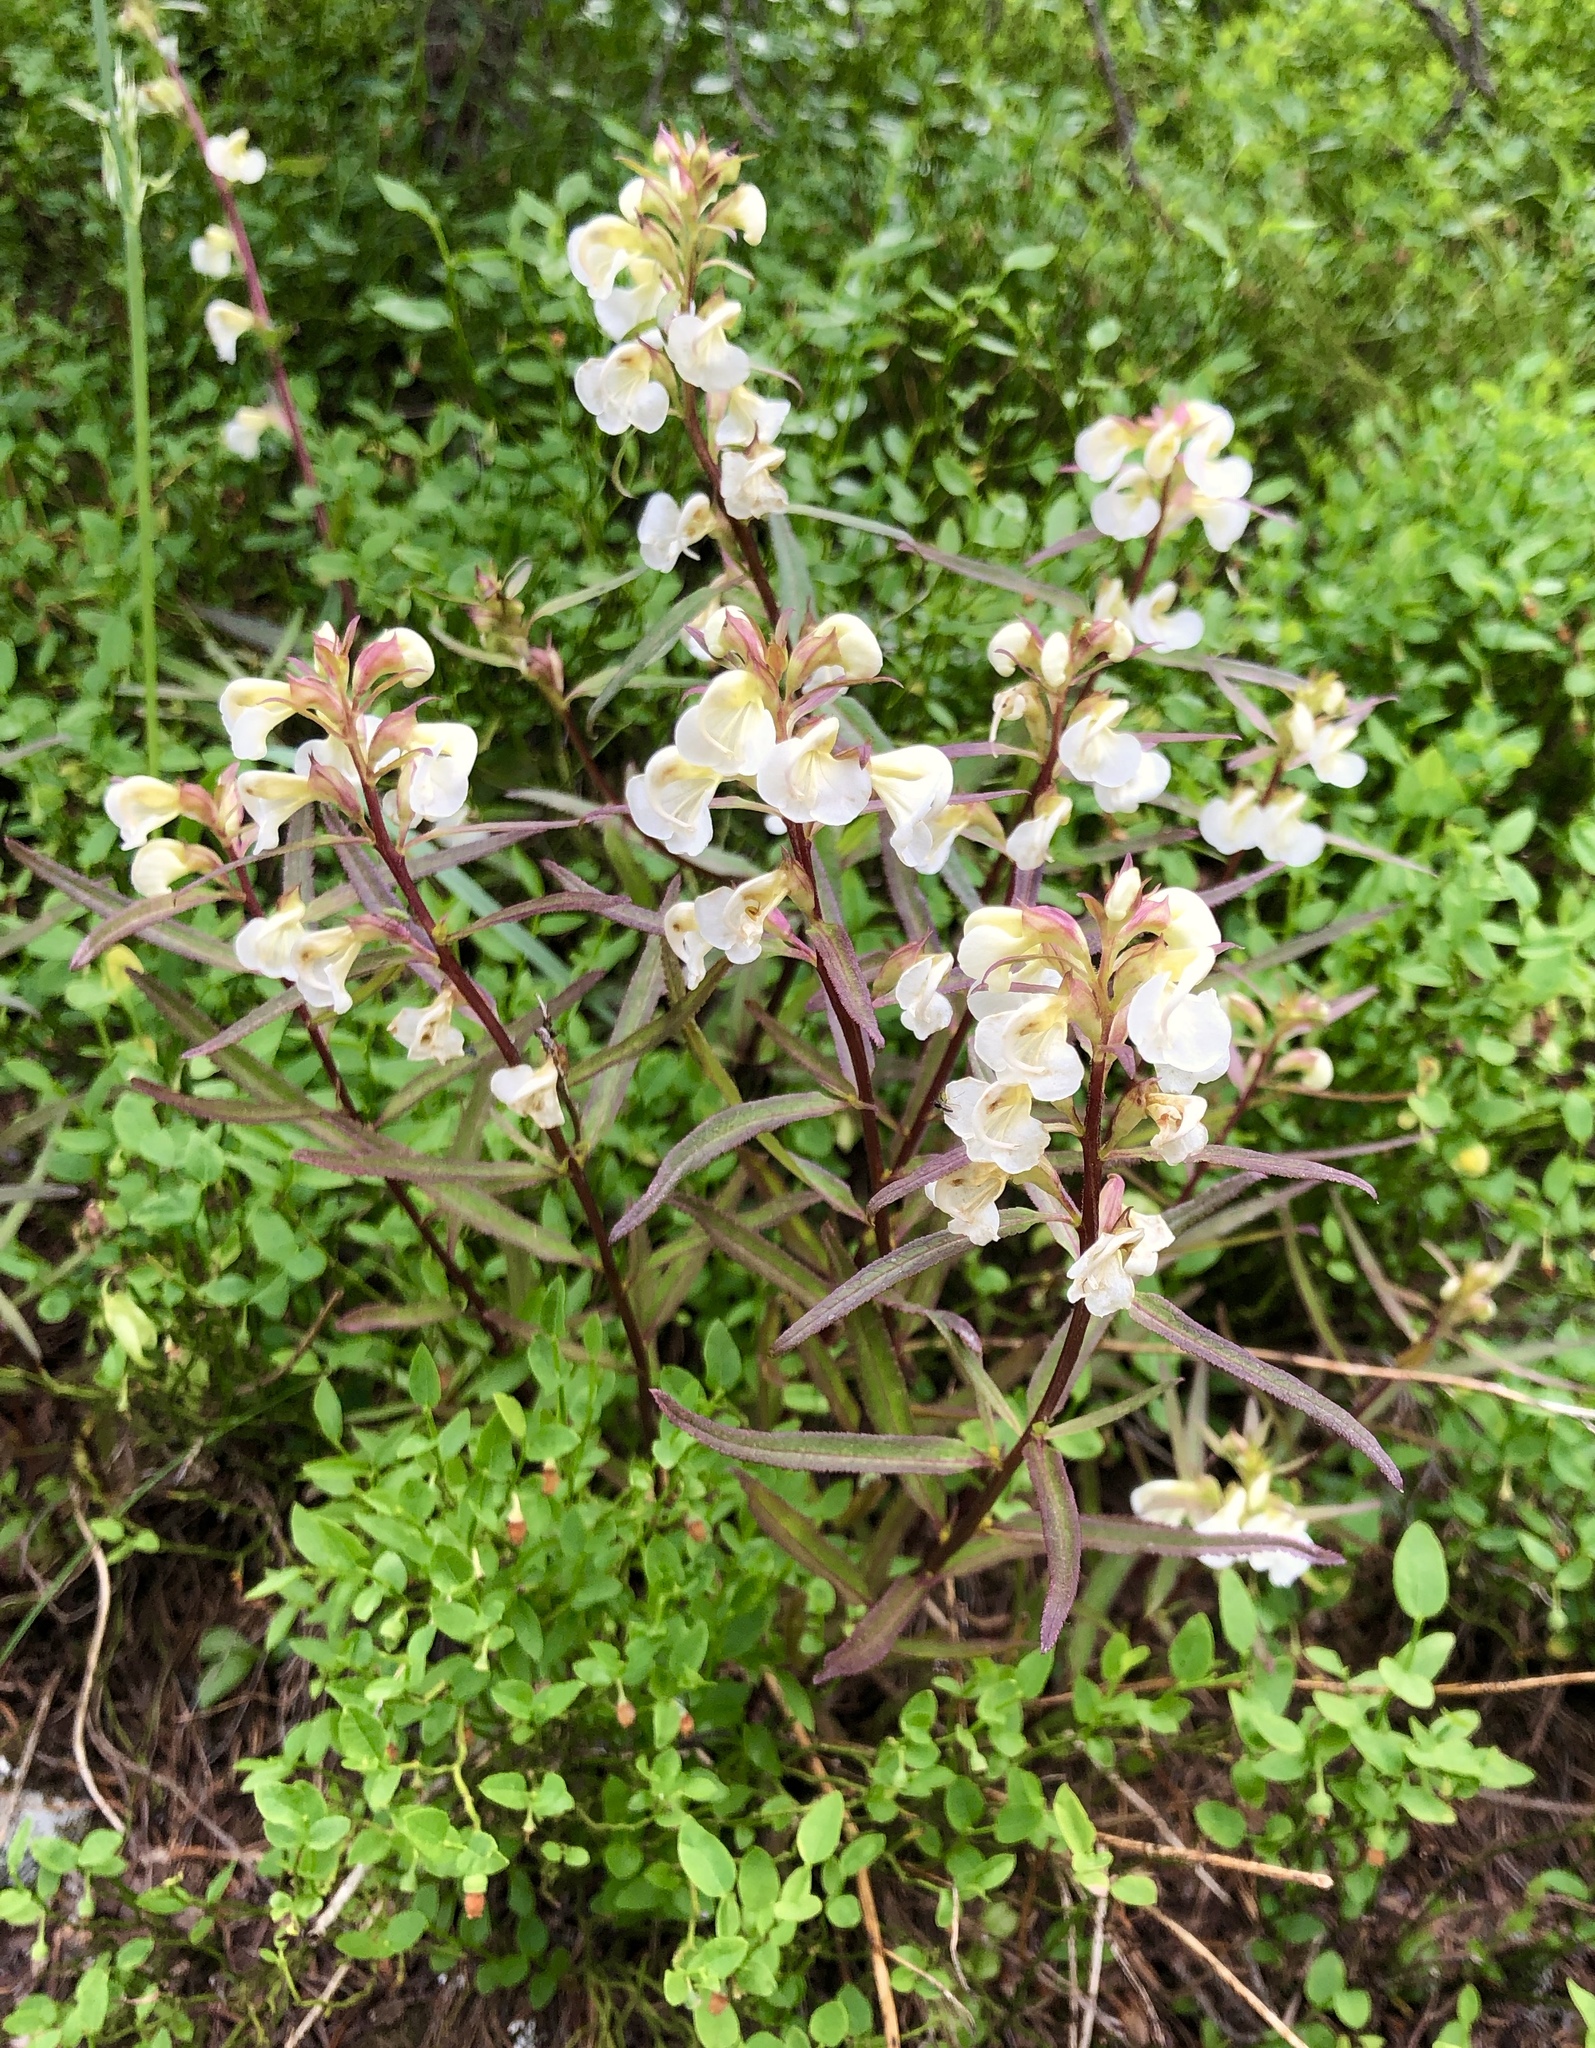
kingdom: Plantae
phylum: Tracheophyta
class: Magnoliopsida
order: Lamiales
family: Orobanchaceae
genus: Pedicularis
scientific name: Pedicularis racemosa
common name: Leafy lousewort
